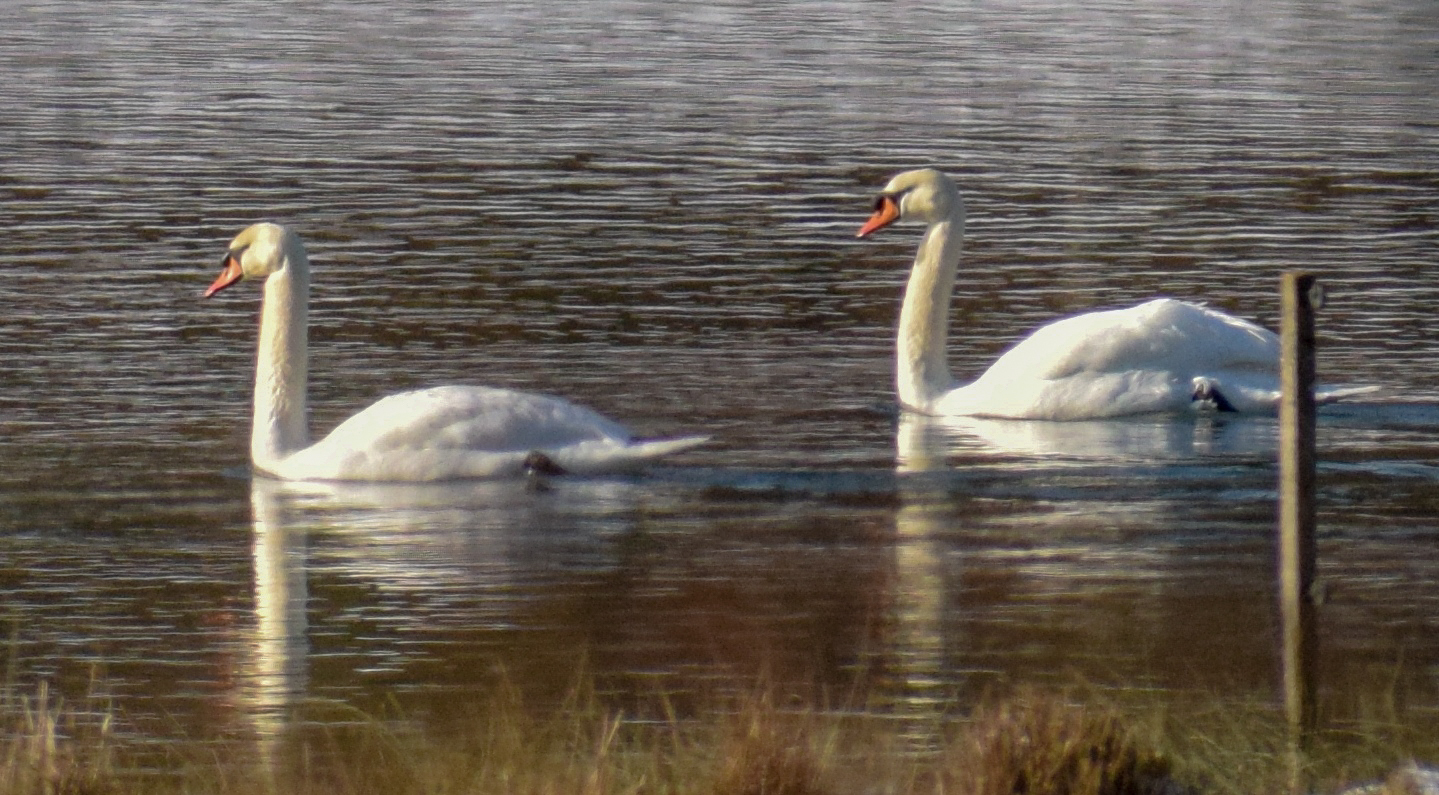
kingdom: Animalia
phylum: Chordata
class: Aves
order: Anseriformes
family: Anatidae
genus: Cygnus
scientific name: Cygnus olor
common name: Mute swan
